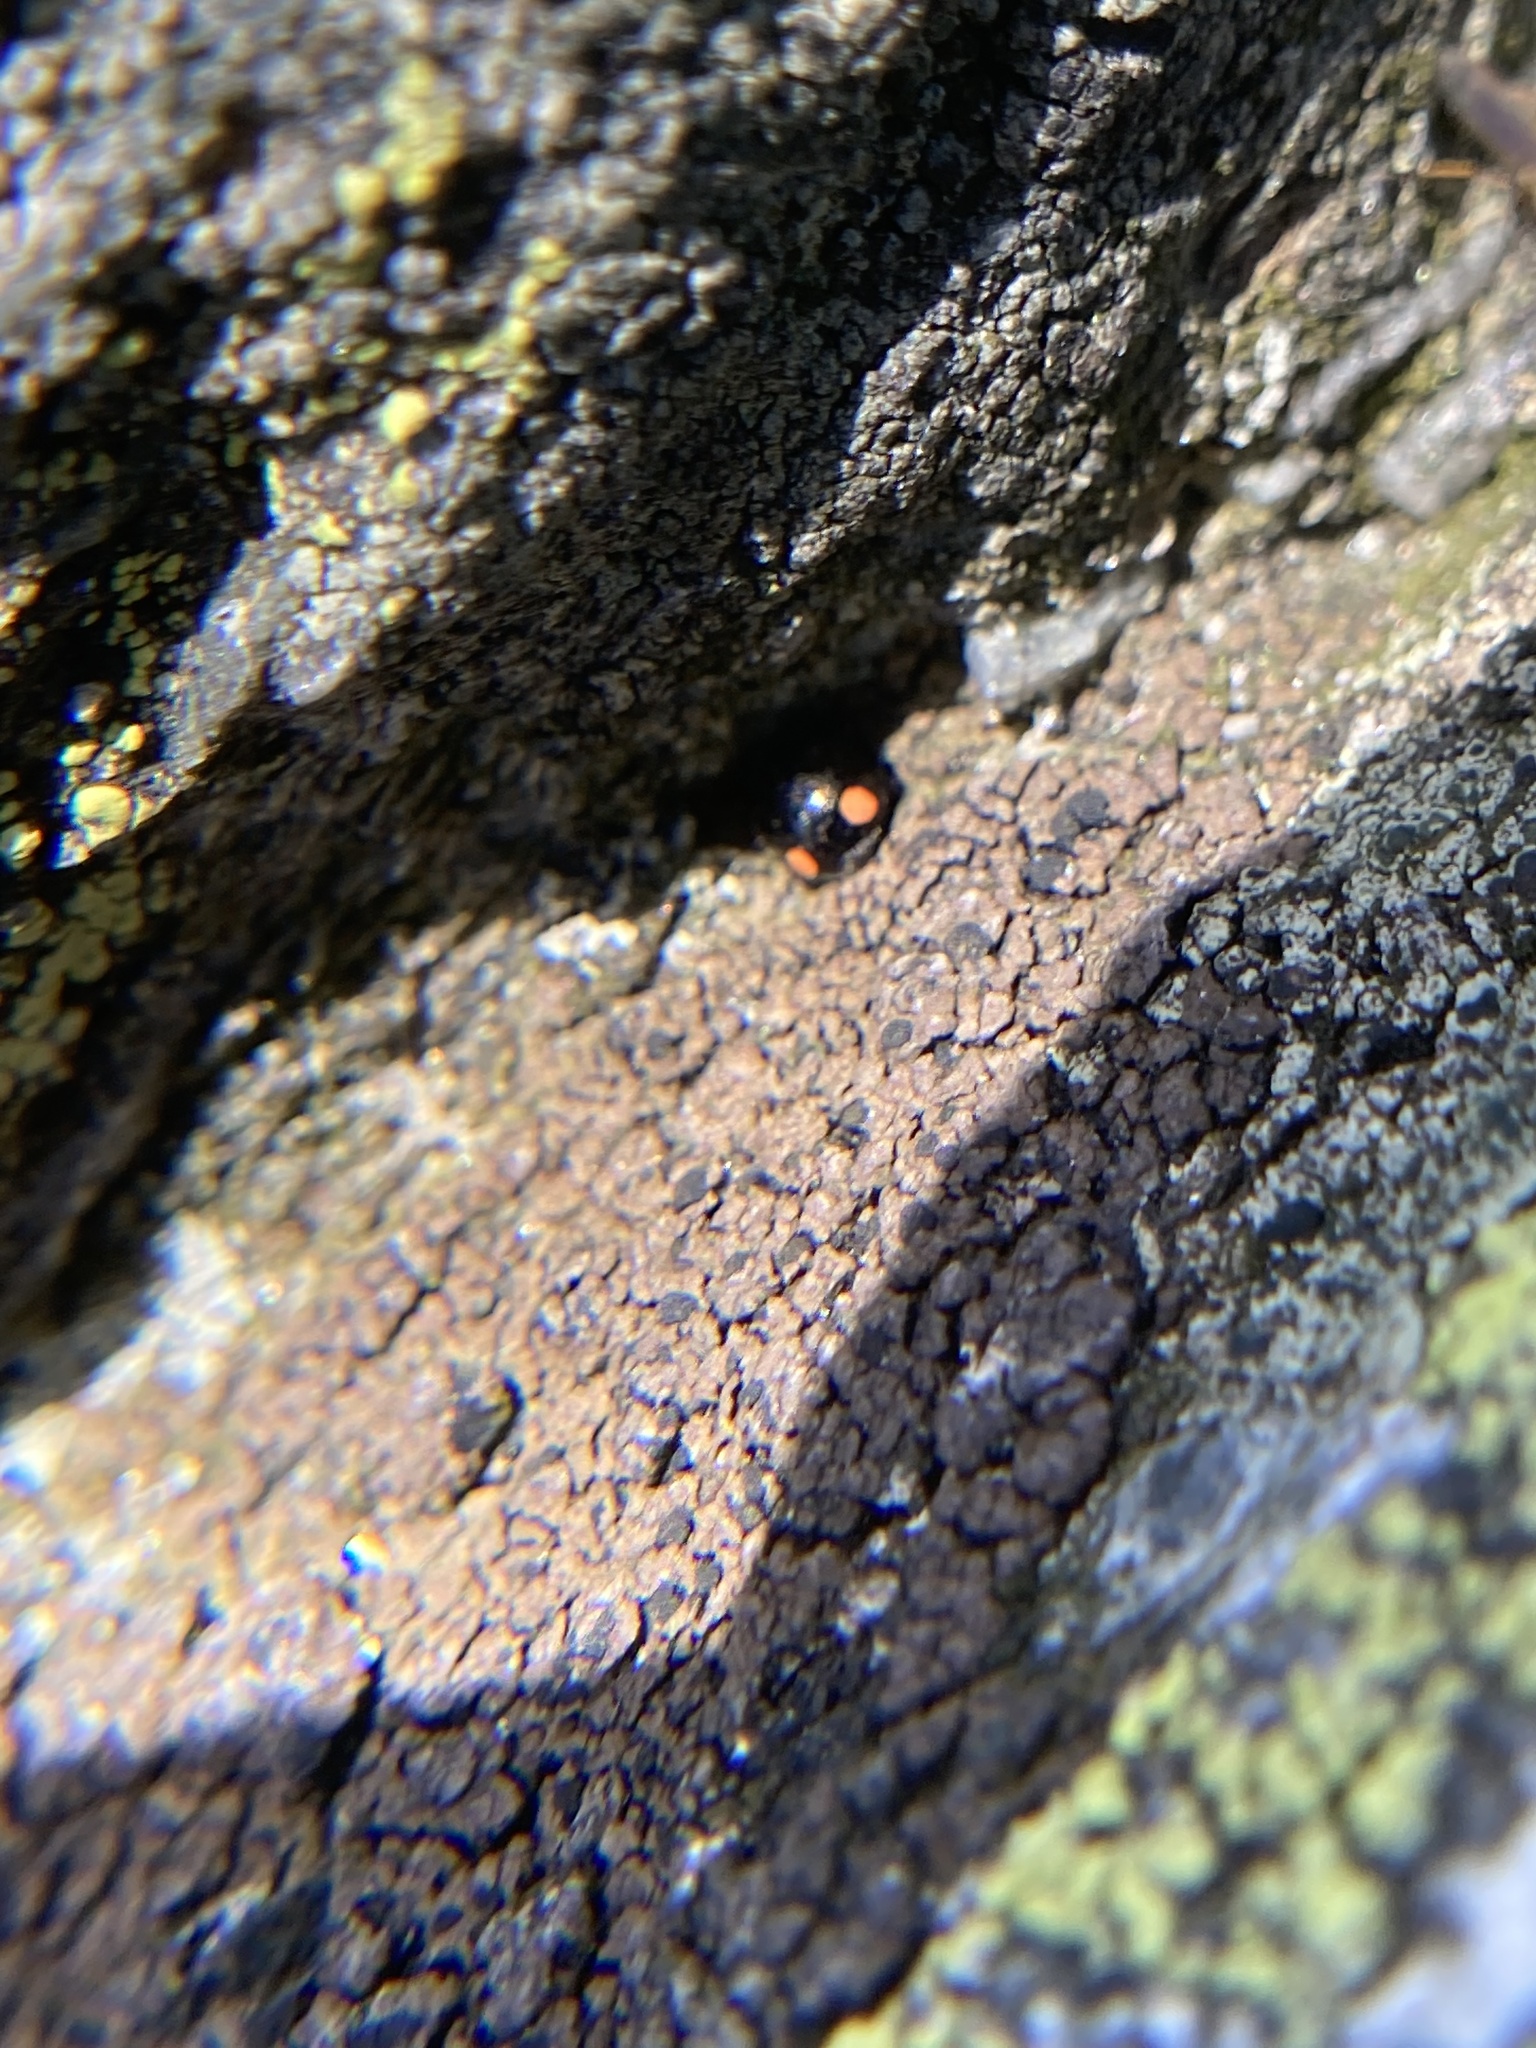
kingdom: Animalia
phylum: Arthropoda
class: Insecta
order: Coleoptera
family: Coccinellidae
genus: Hyperaspis
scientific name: Hyperaspis bigeminata
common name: Bigeminate sigil lady beetle
